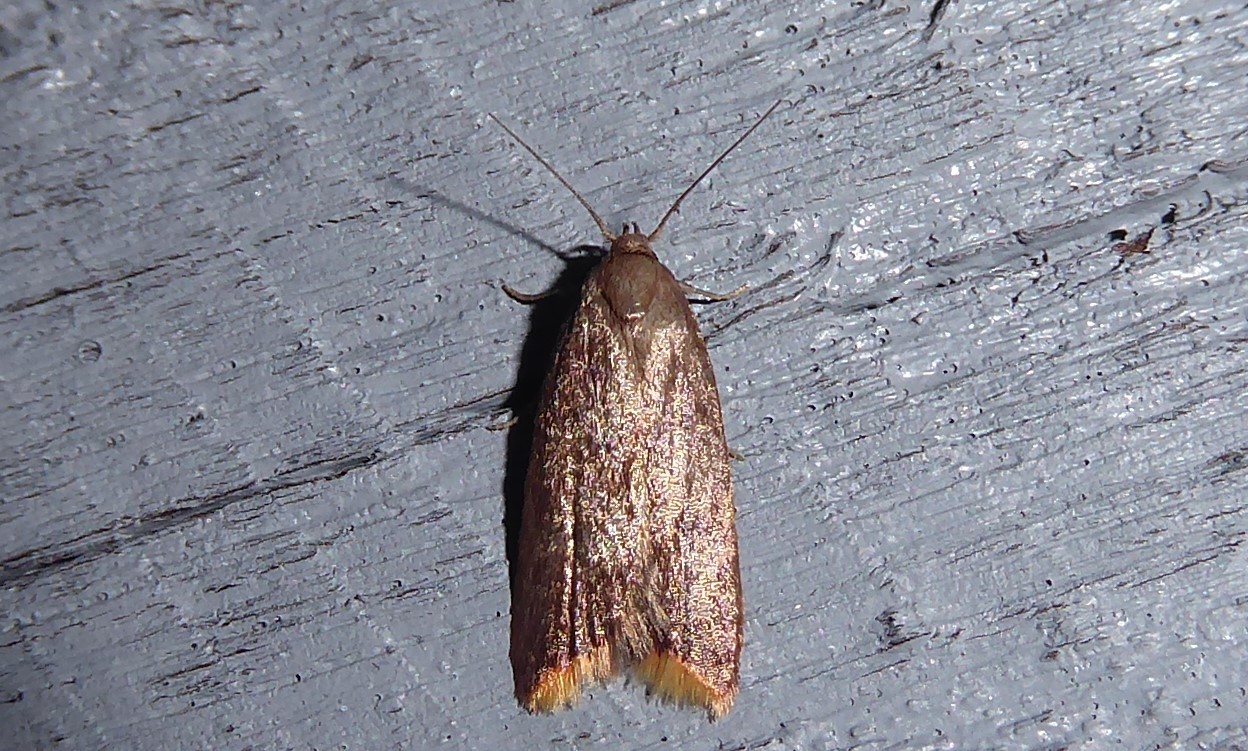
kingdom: Animalia
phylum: Arthropoda
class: Insecta
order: Lepidoptera
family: Oecophoridae
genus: Tachystola
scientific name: Tachystola acroxantha
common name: Ruddy streak
